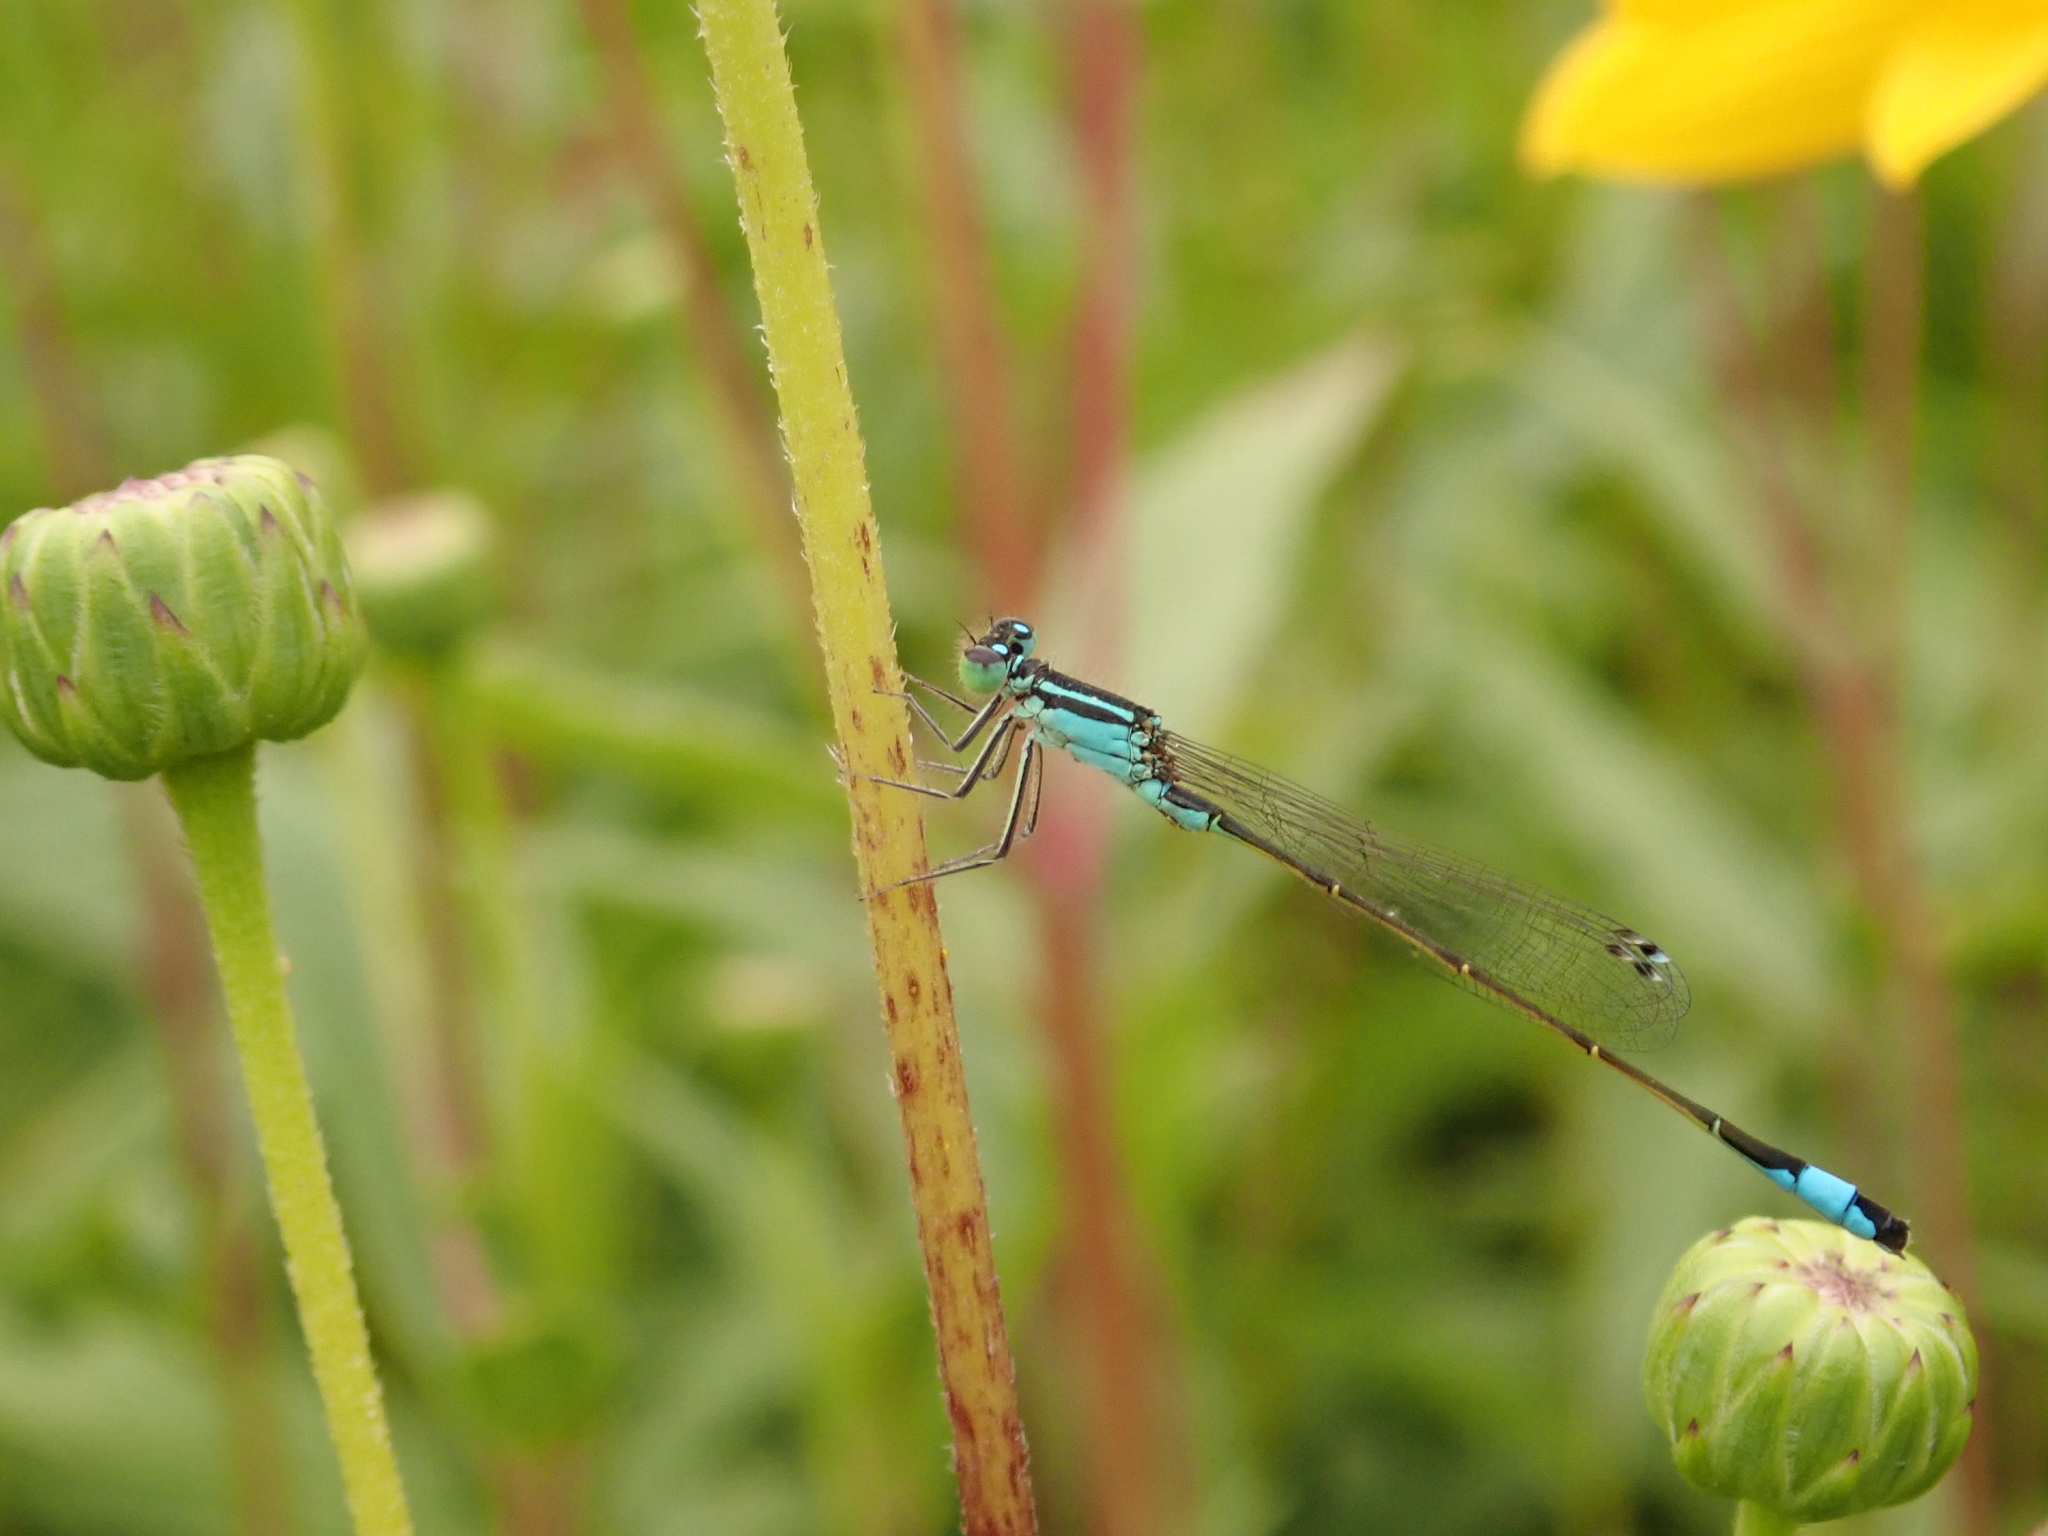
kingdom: Animalia
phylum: Arthropoda
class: Insecta
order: Odonata
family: Coenagrionidae
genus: Ischnura
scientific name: Ischnura elegans
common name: Blue-tailed damselfly
